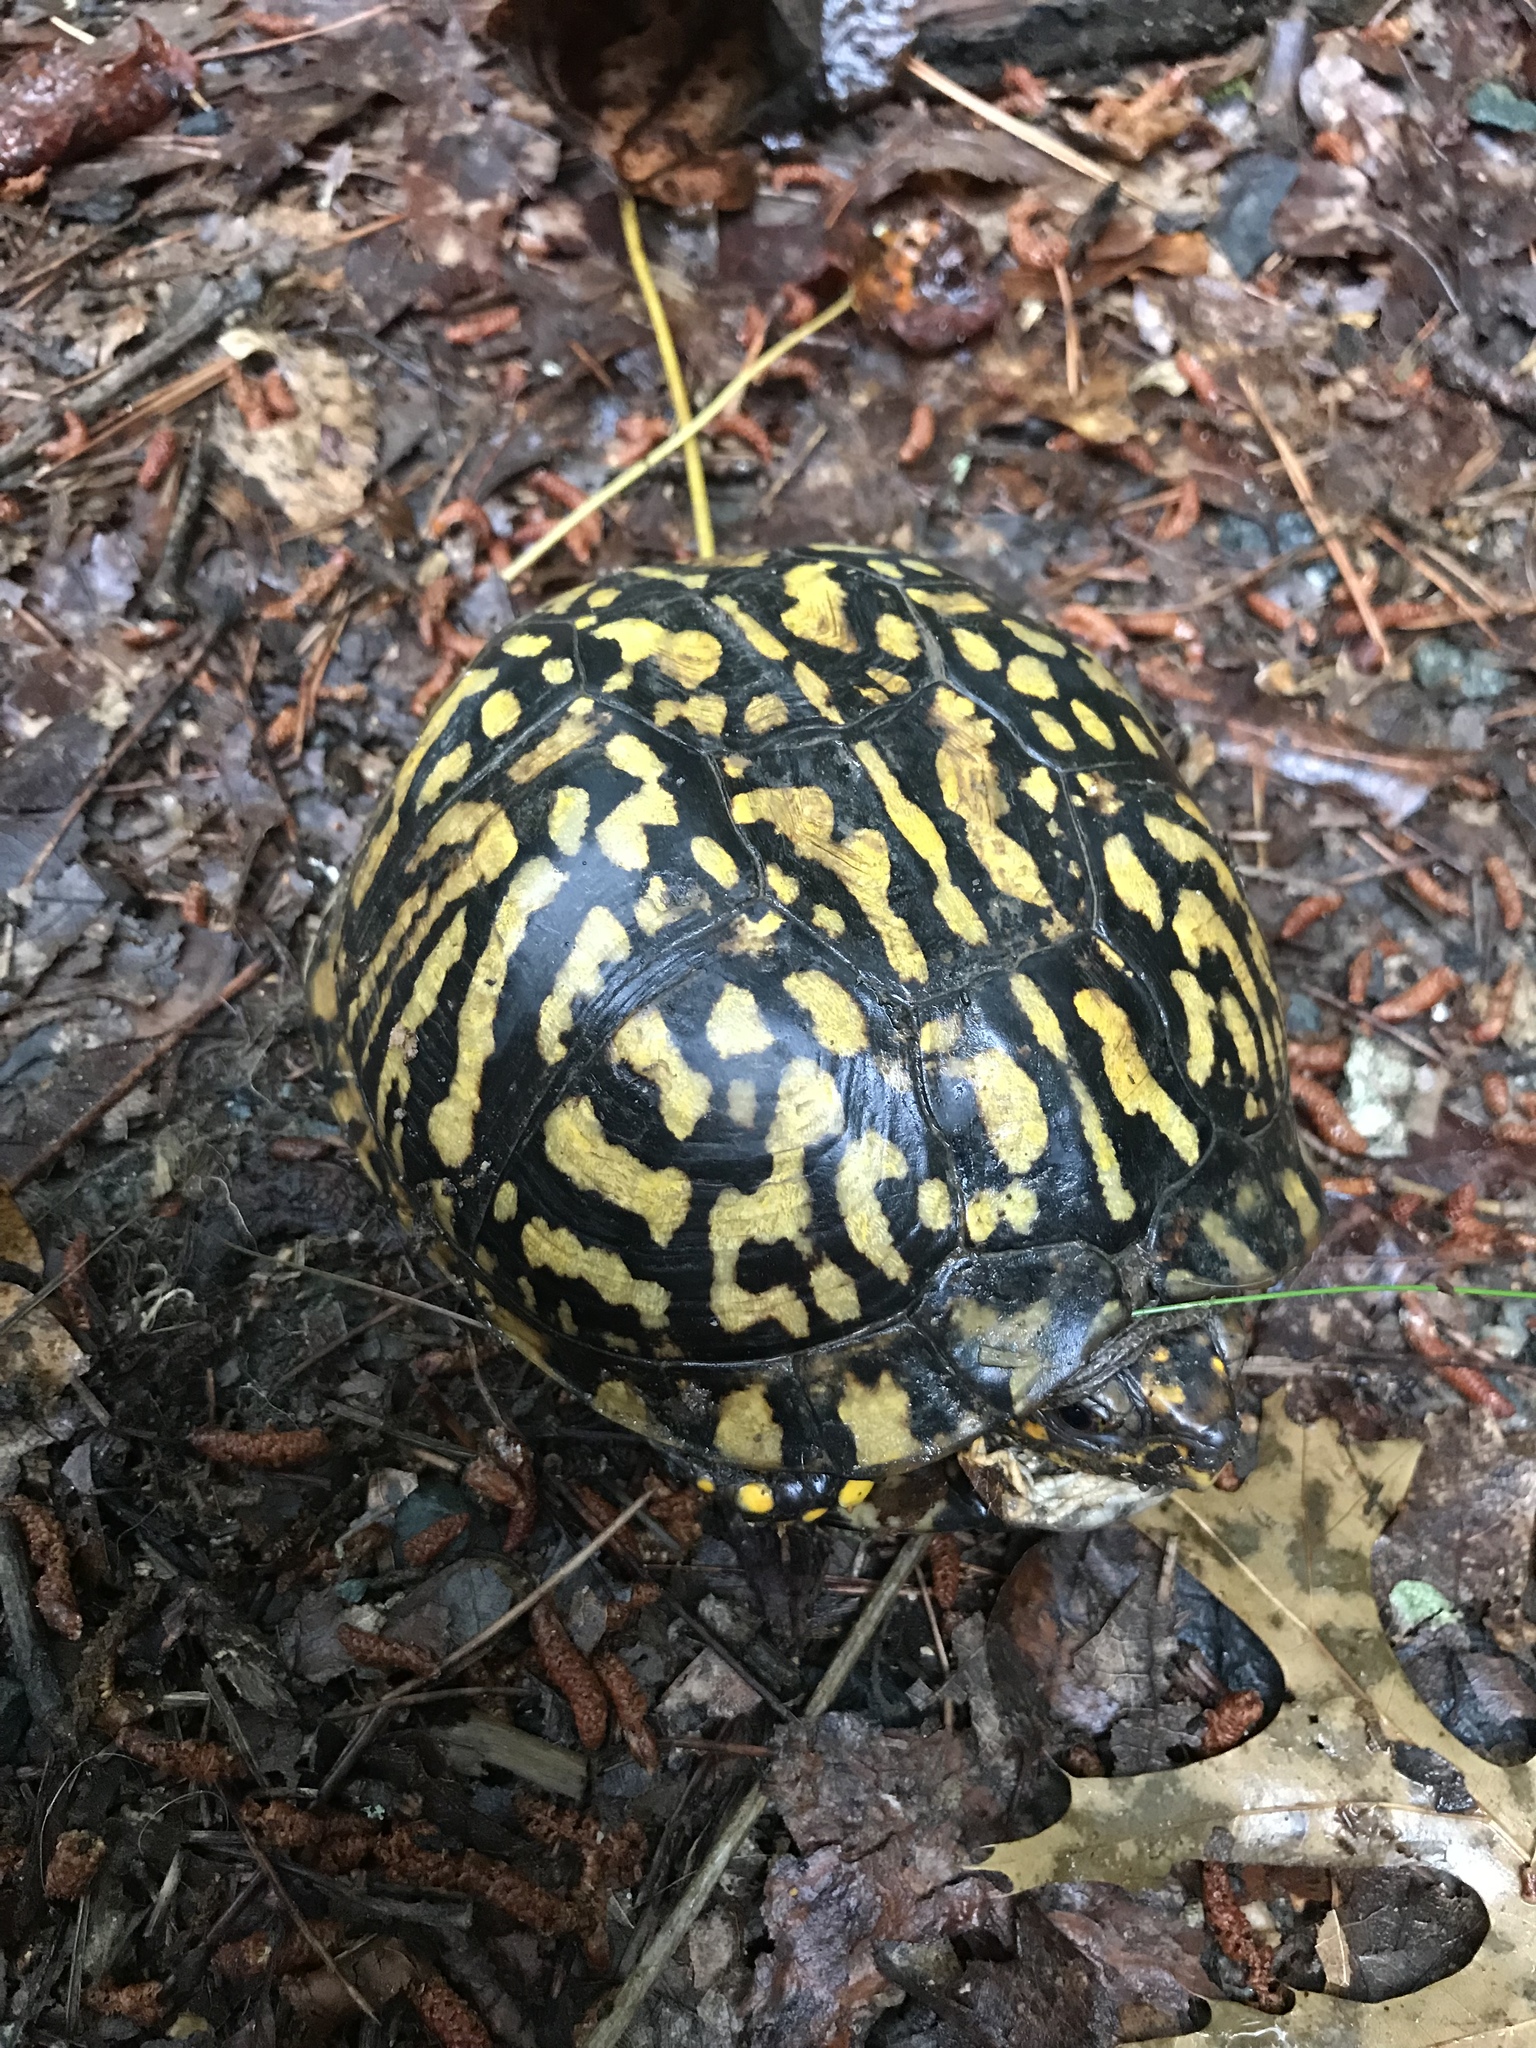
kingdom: Animalia
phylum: Chordata
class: Testudines
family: Emydidae
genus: Terrapene
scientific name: Terrapene carolina
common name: Common box turtle
